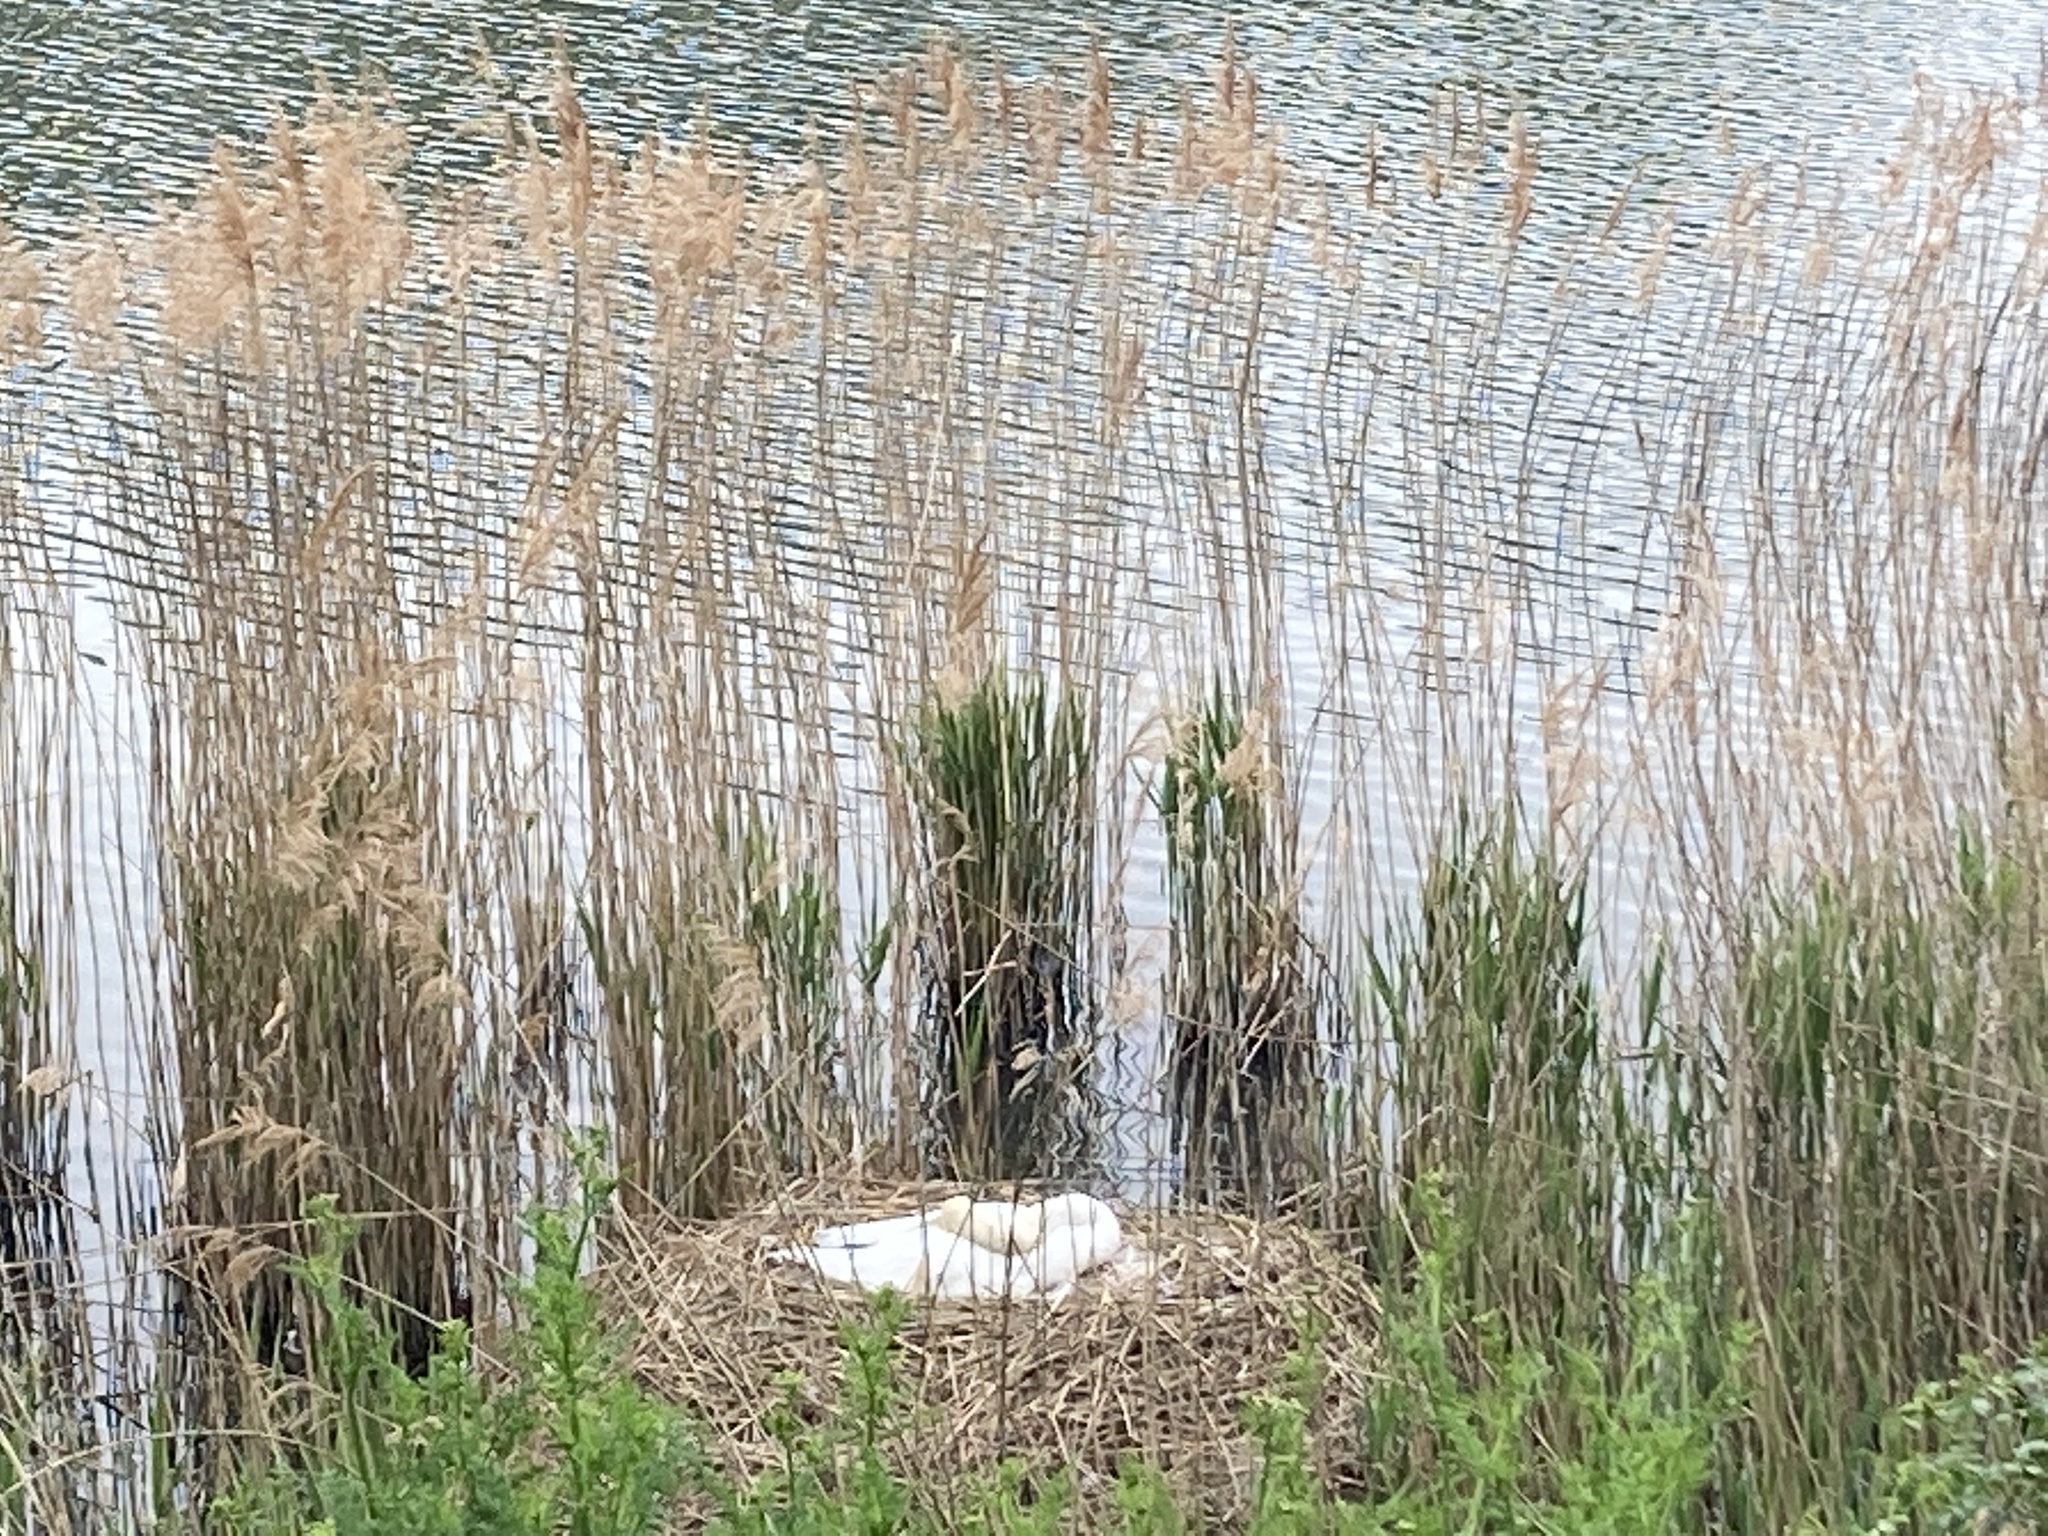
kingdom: Animalia
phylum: Chordata
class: Aves
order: Anseriformes
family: Anatidae
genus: Cygnus
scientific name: Cygnus olor
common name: Mute swan
